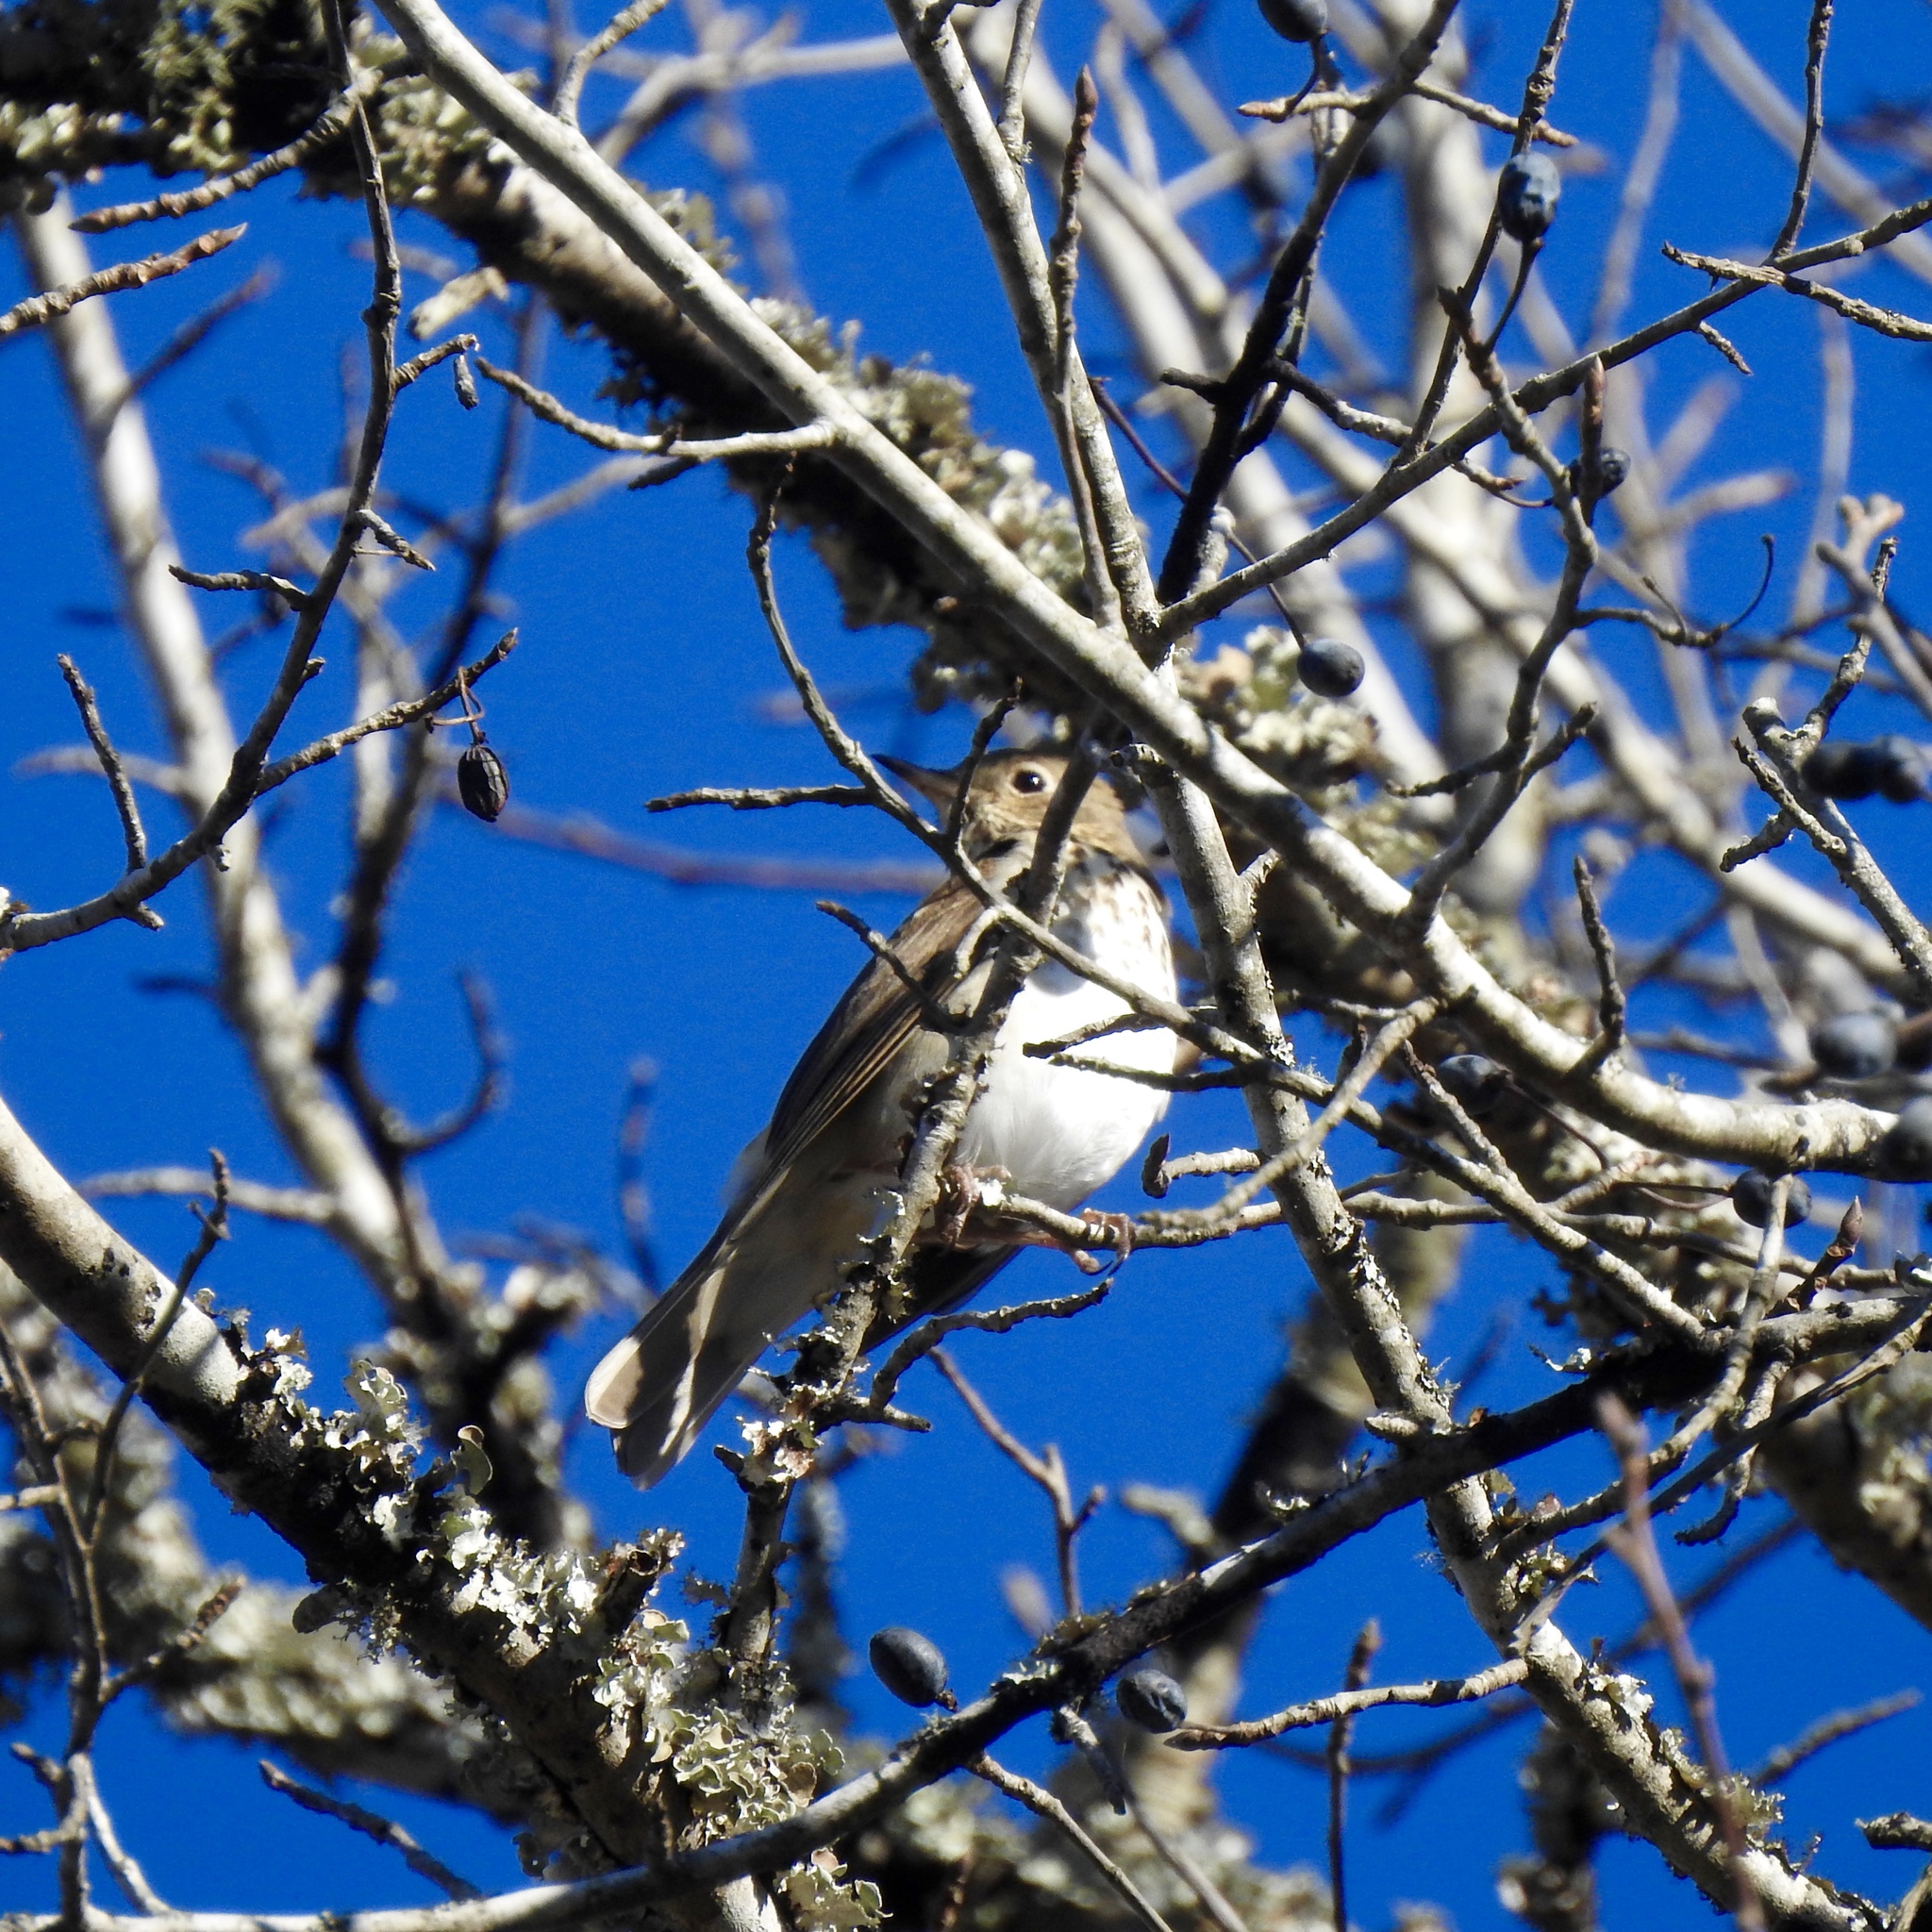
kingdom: Animalia
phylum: Chordata
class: Aves
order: Passeriformes
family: Turdidae
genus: Catharus
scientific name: Catharus guttatus
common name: Hermit thrush
